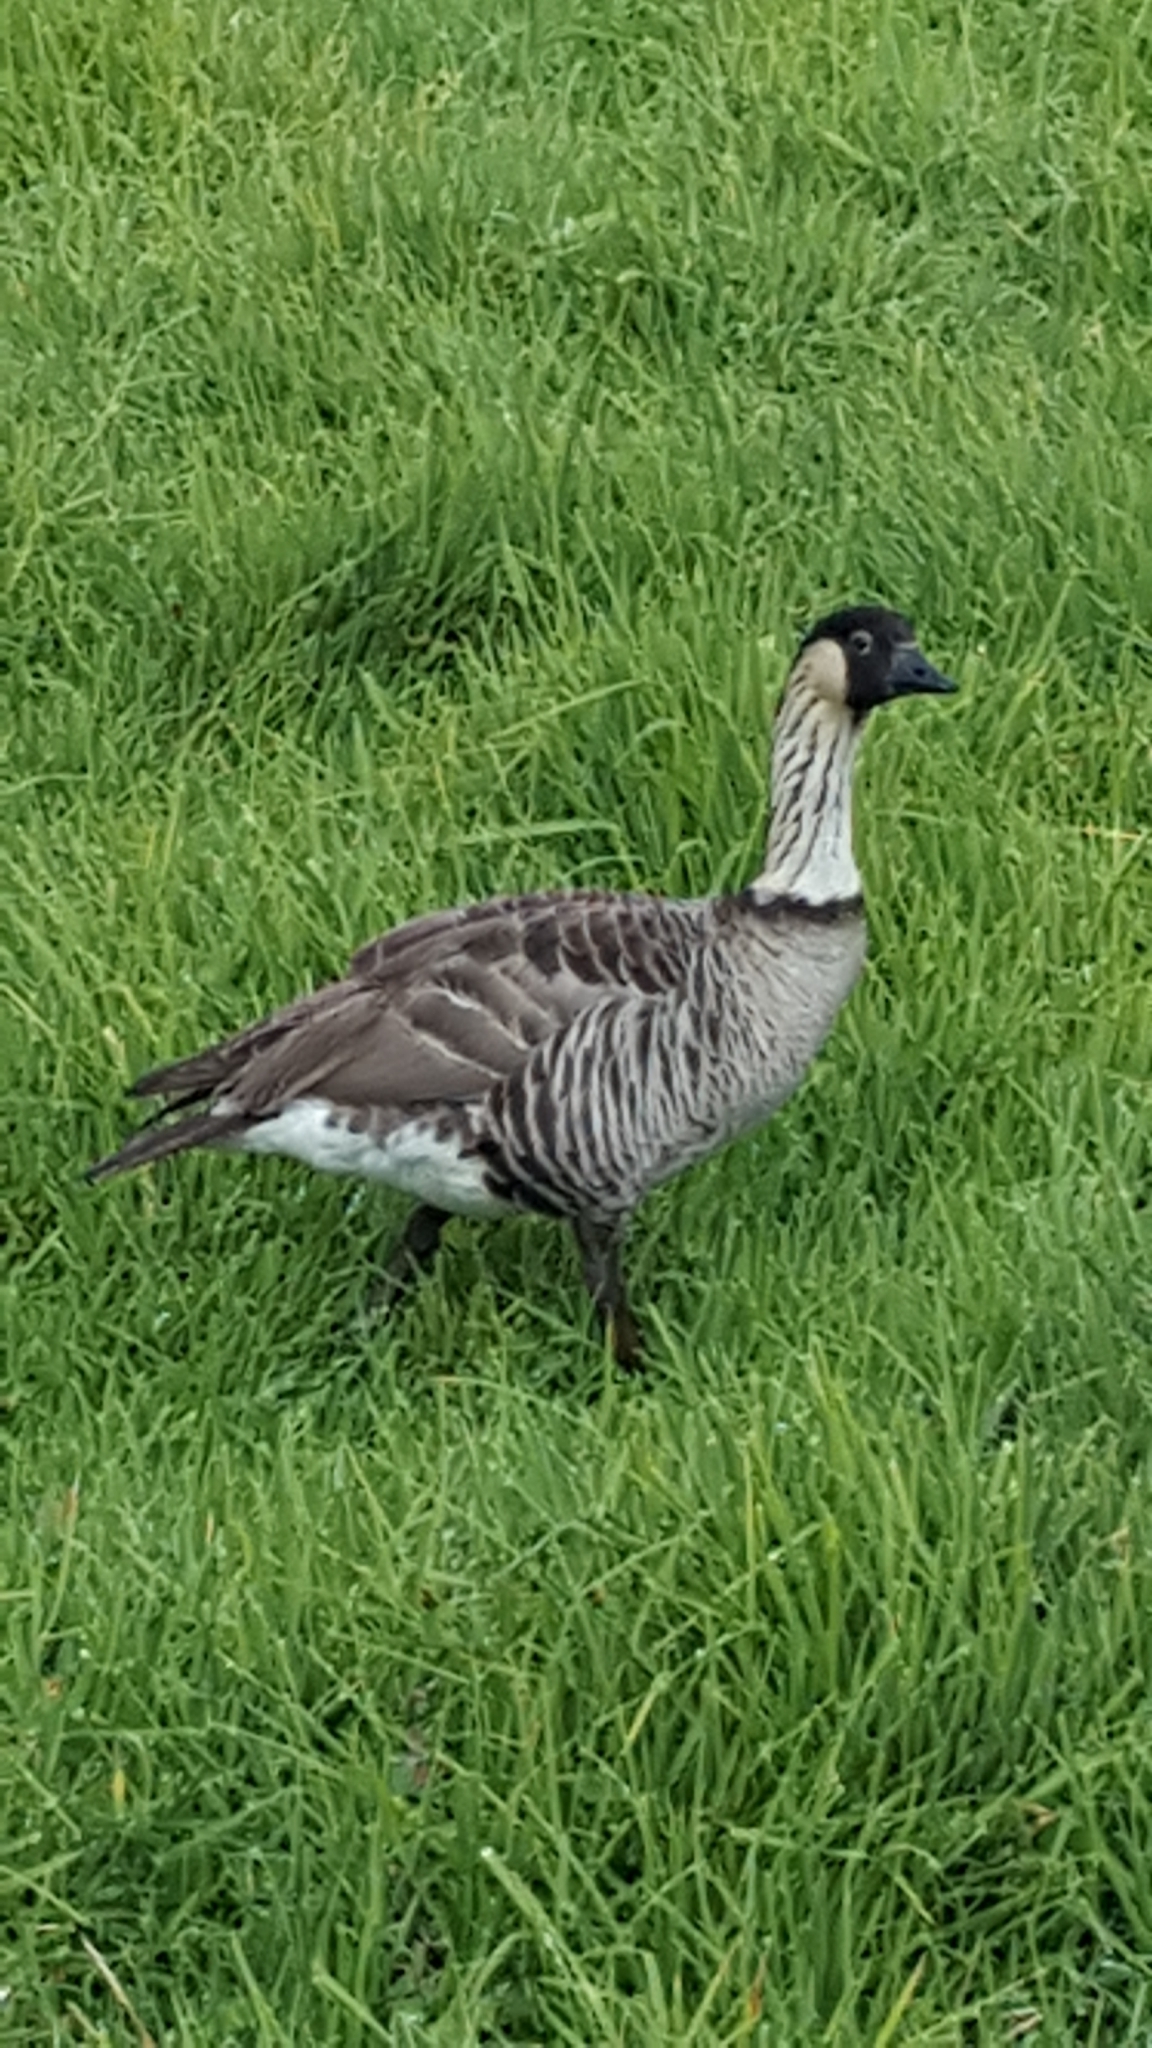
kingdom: Animalia
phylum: Chordata
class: Aves
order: Anseriformes
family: Anatidae
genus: Branta
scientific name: Branta sandvicensis
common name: Nene
